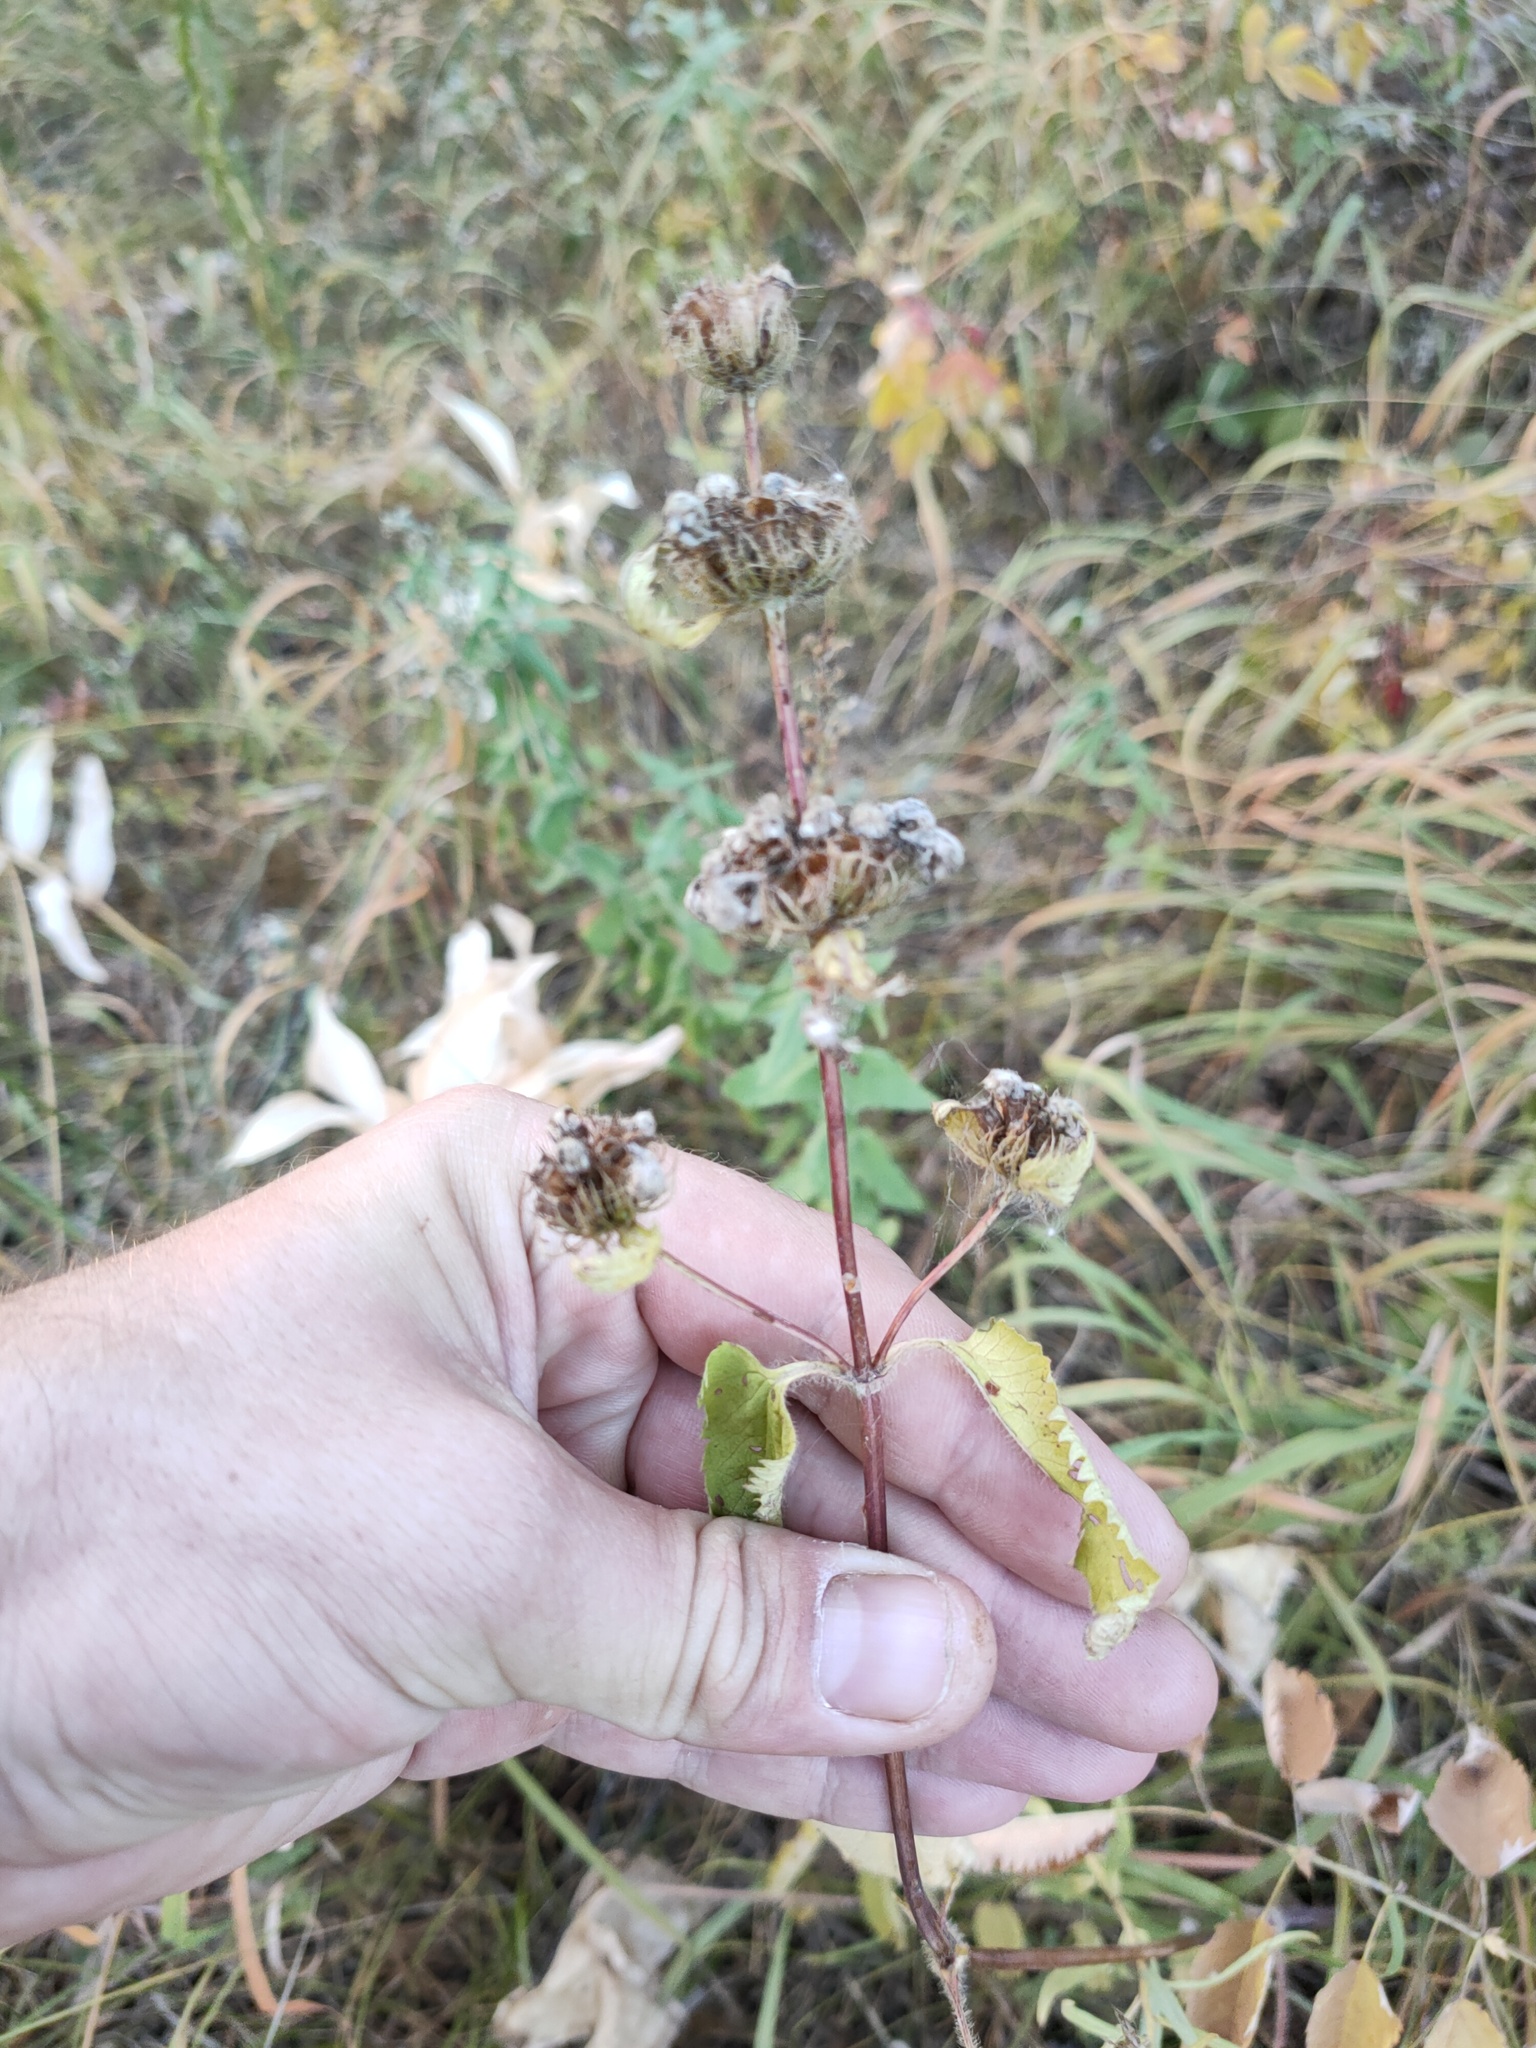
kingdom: Plantae
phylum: Tracheophyta
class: Magnoliopsida
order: Lamiales
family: Lamiaceae
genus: Phlomoides
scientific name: Phlomoides tuberosa
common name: Tuberous jerusalem sage
